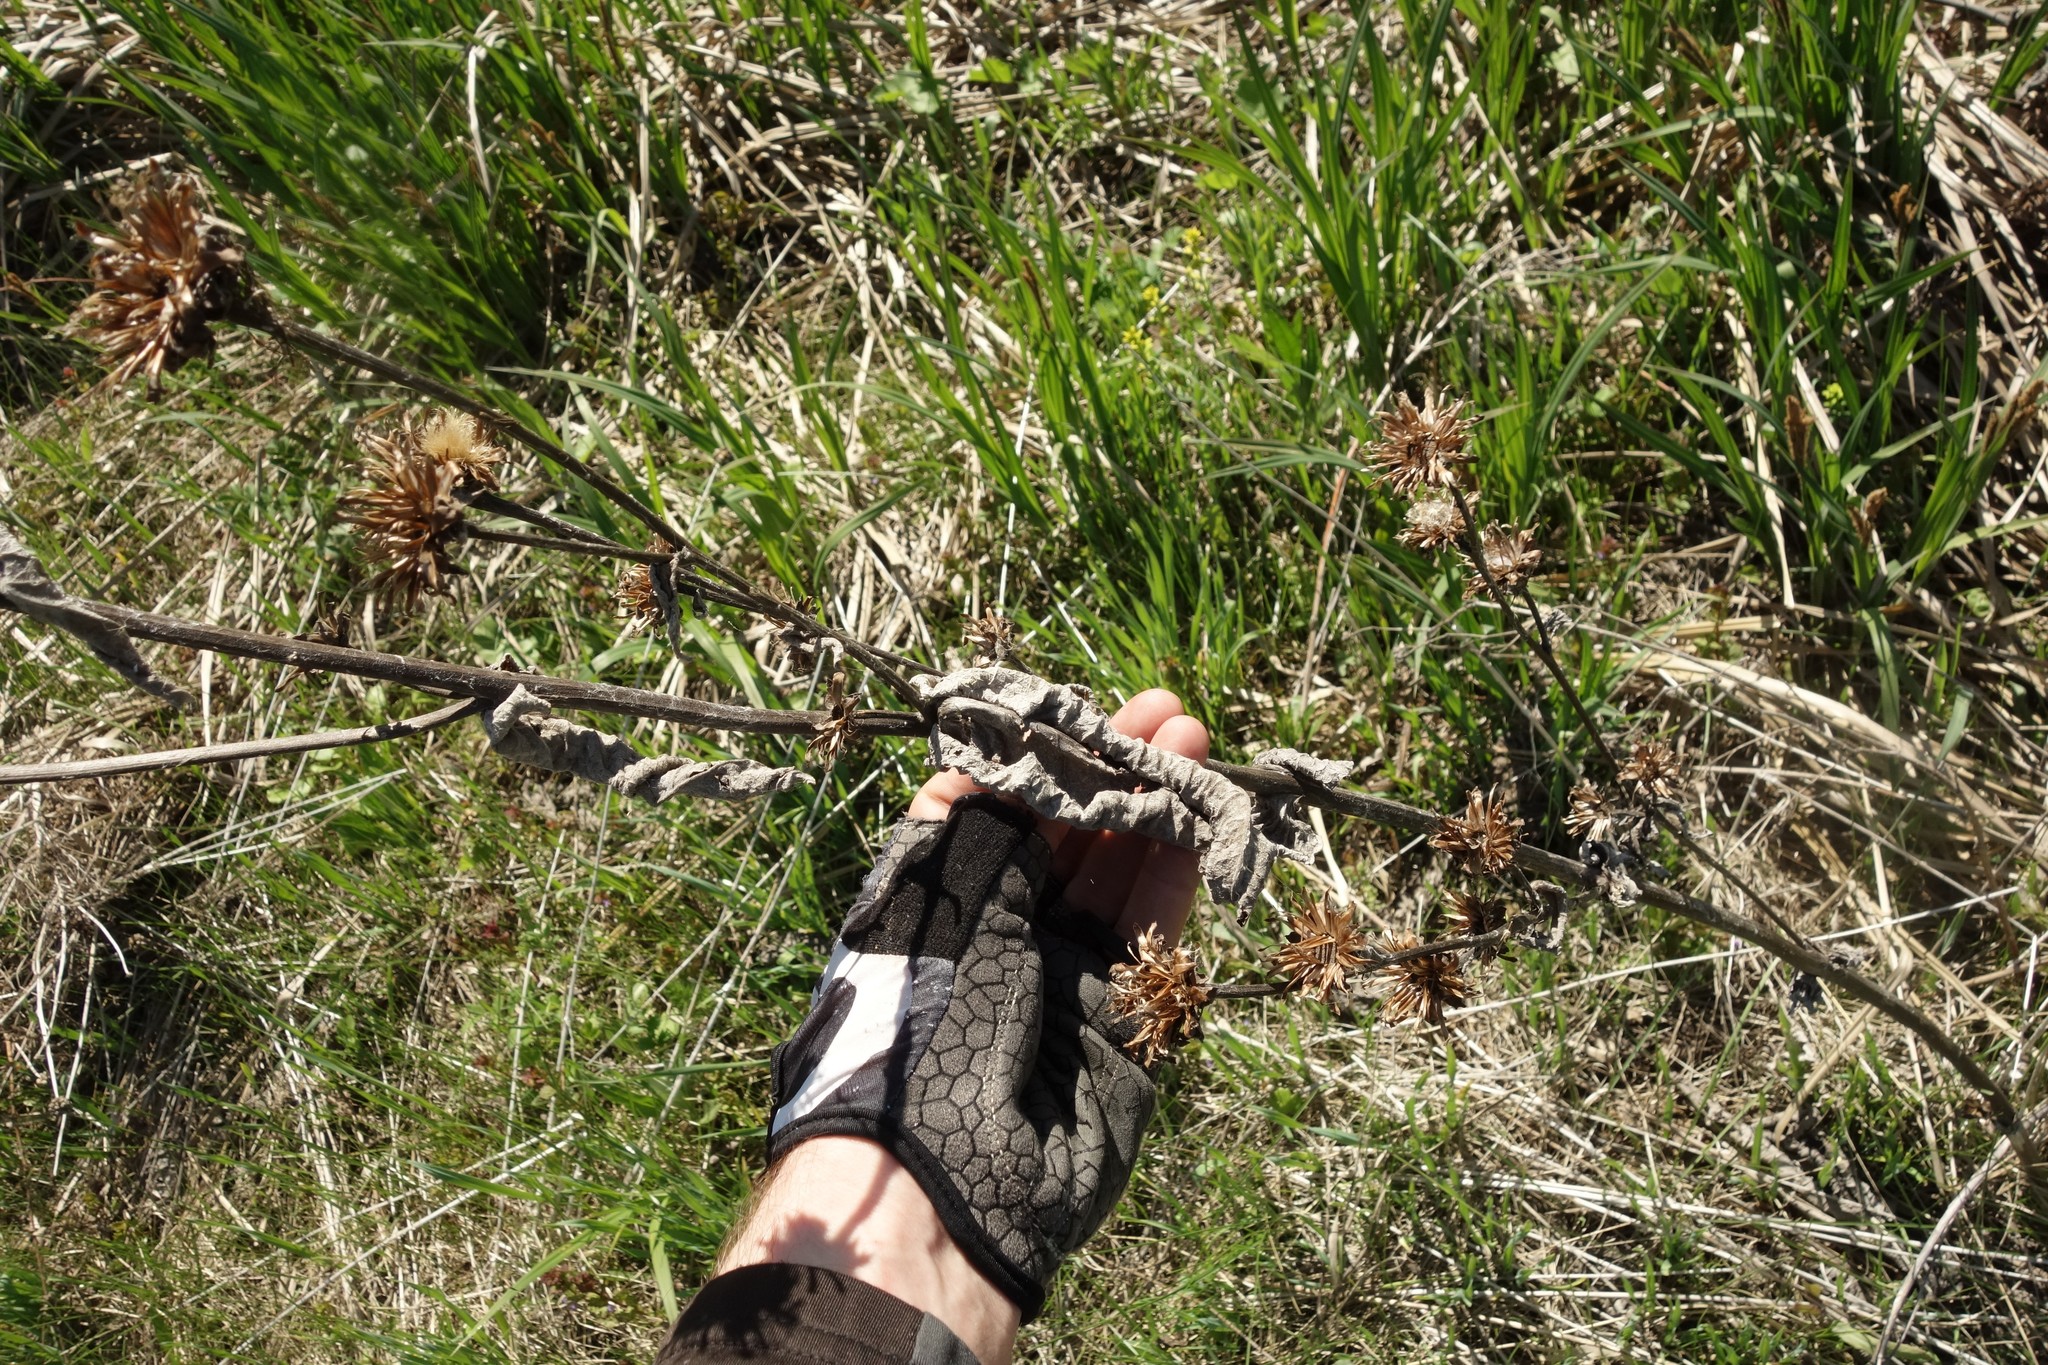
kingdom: Plantae
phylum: Tracheophyta
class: Magnoliopsida
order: Asterales
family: Asteraceae
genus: Inula
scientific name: Inula helenium
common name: Elecampane
